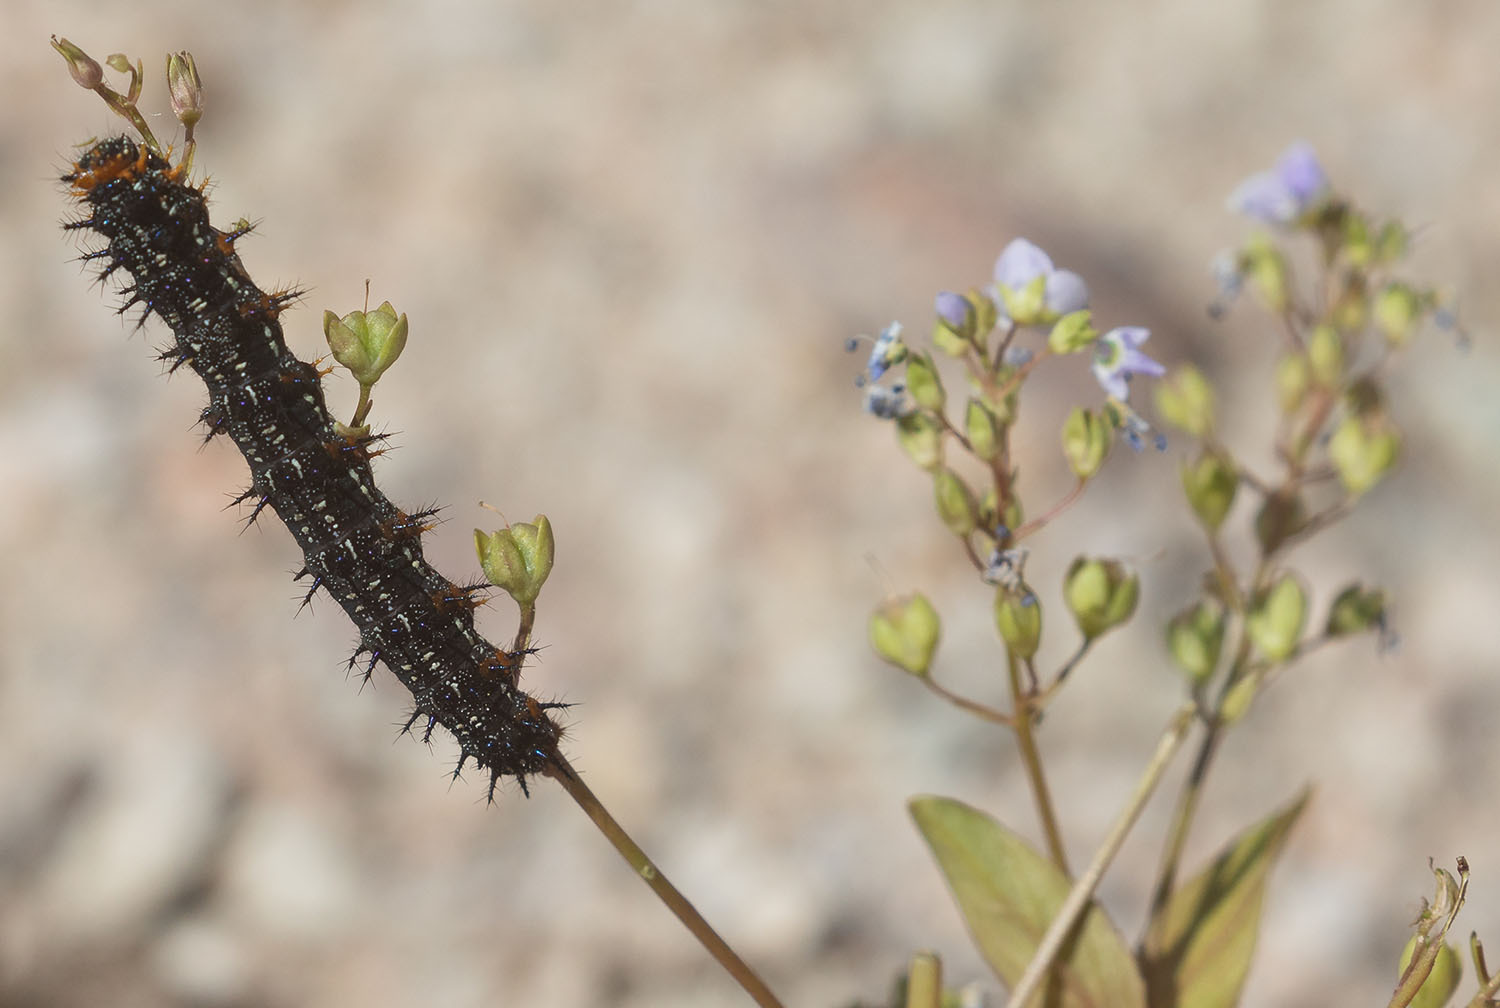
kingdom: Animalia
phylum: Arthropoda
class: Insecta
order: Lepidoptera
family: Nymphalidae
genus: Junonia
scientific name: Junonia grisea
